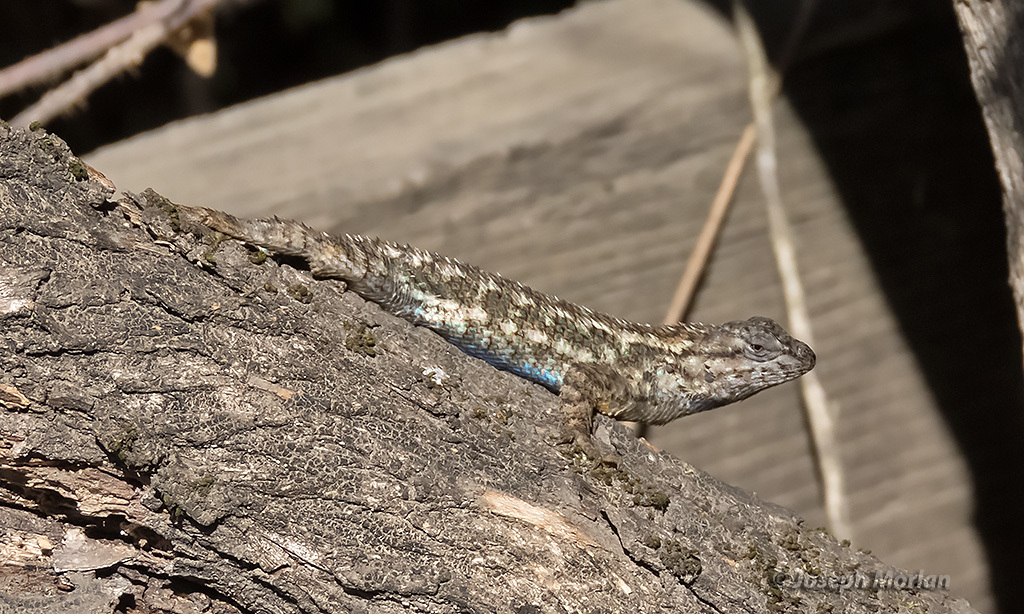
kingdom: Animalia
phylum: Chordata
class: Squamata
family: Phrynosomatidae
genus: Sceloporus
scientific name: Sceloporus occidentalis
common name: Western fence lizard
